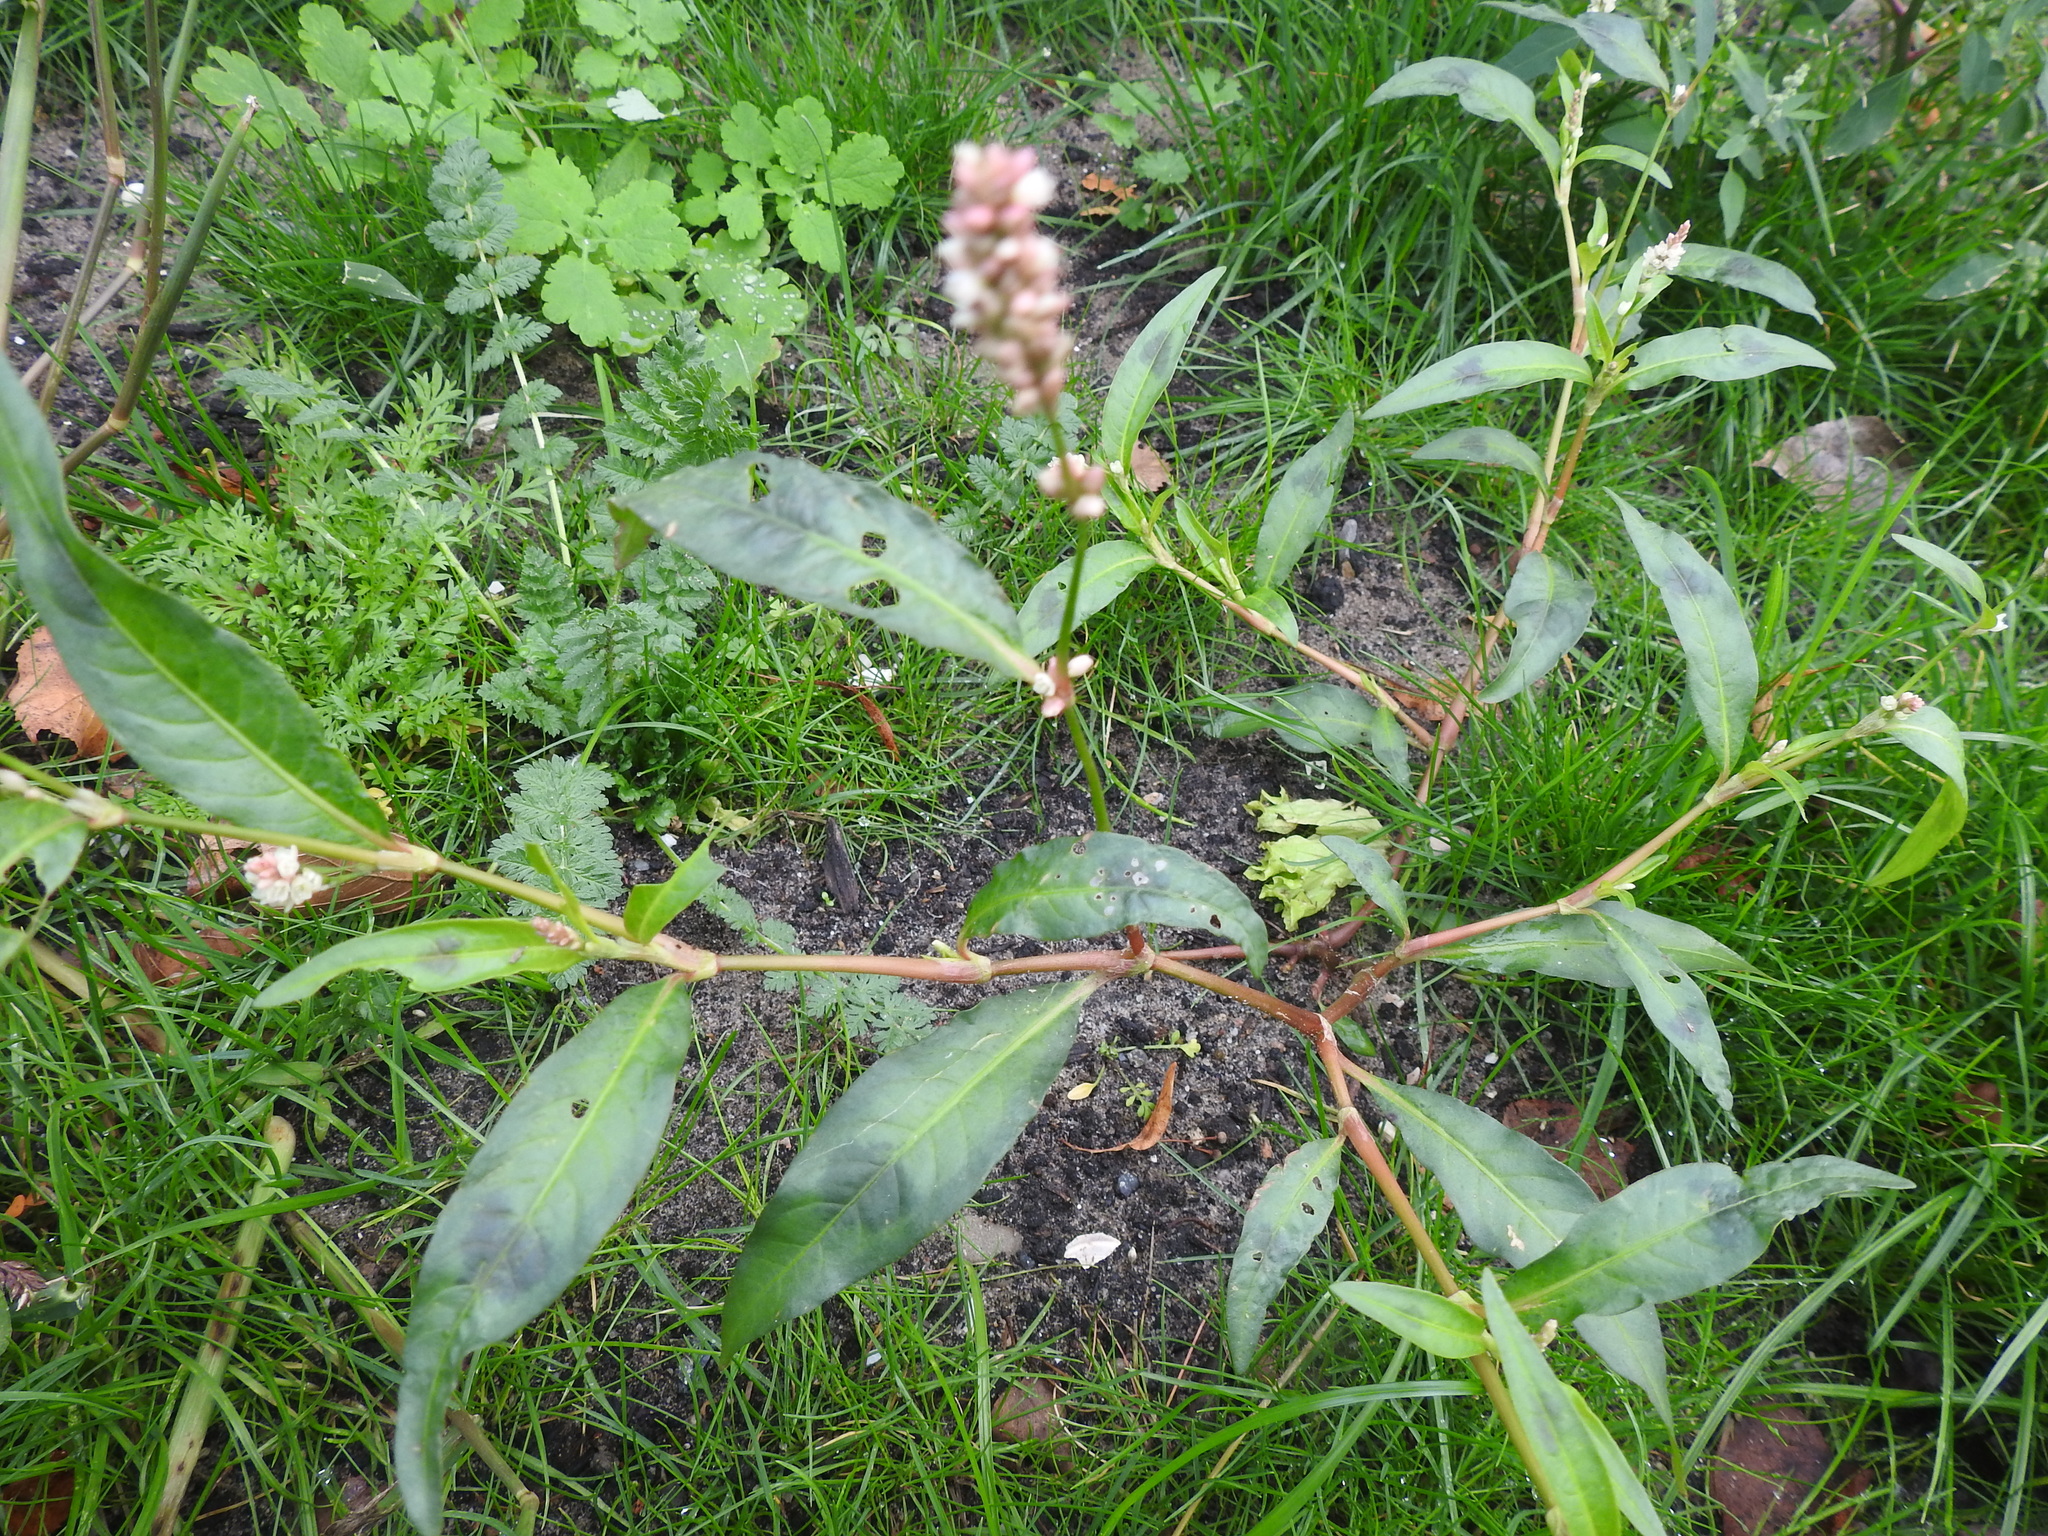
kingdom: Plantae
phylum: Tracheophyta
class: Magnoliopsida
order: Caryophyllales
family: Polygonaceae
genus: Persicaria
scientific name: Persicaria maculosa
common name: Redshank
